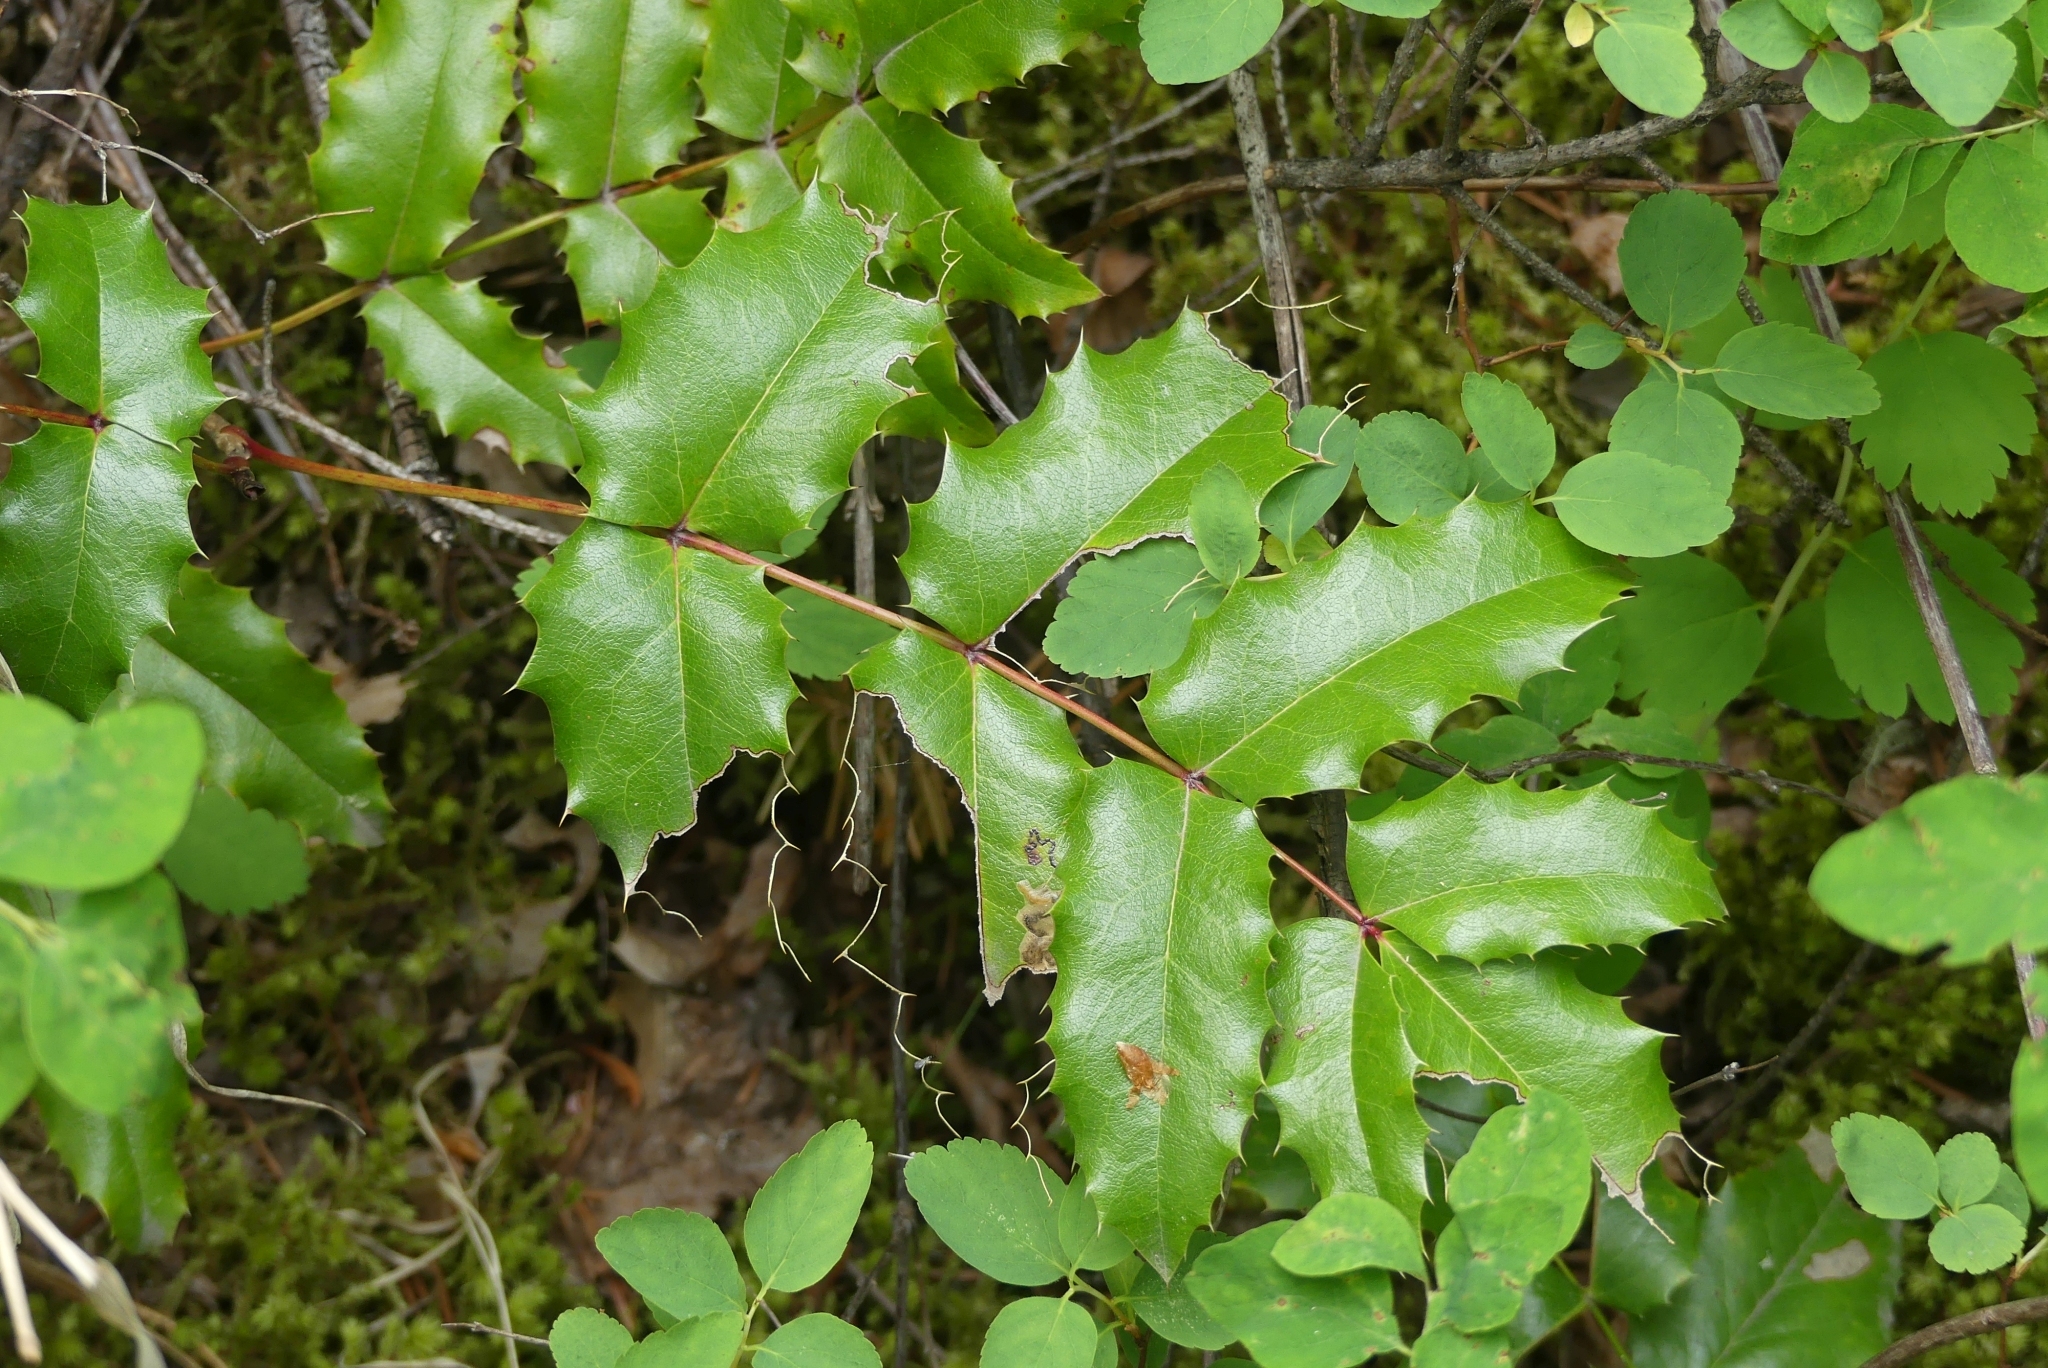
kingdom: Plantae
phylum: Tracheophyta
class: Magnoliopsida
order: Ranunculales
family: Berberidaceae
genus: Mahonia
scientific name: Mahonia aquifolium
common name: Oregon-grape
